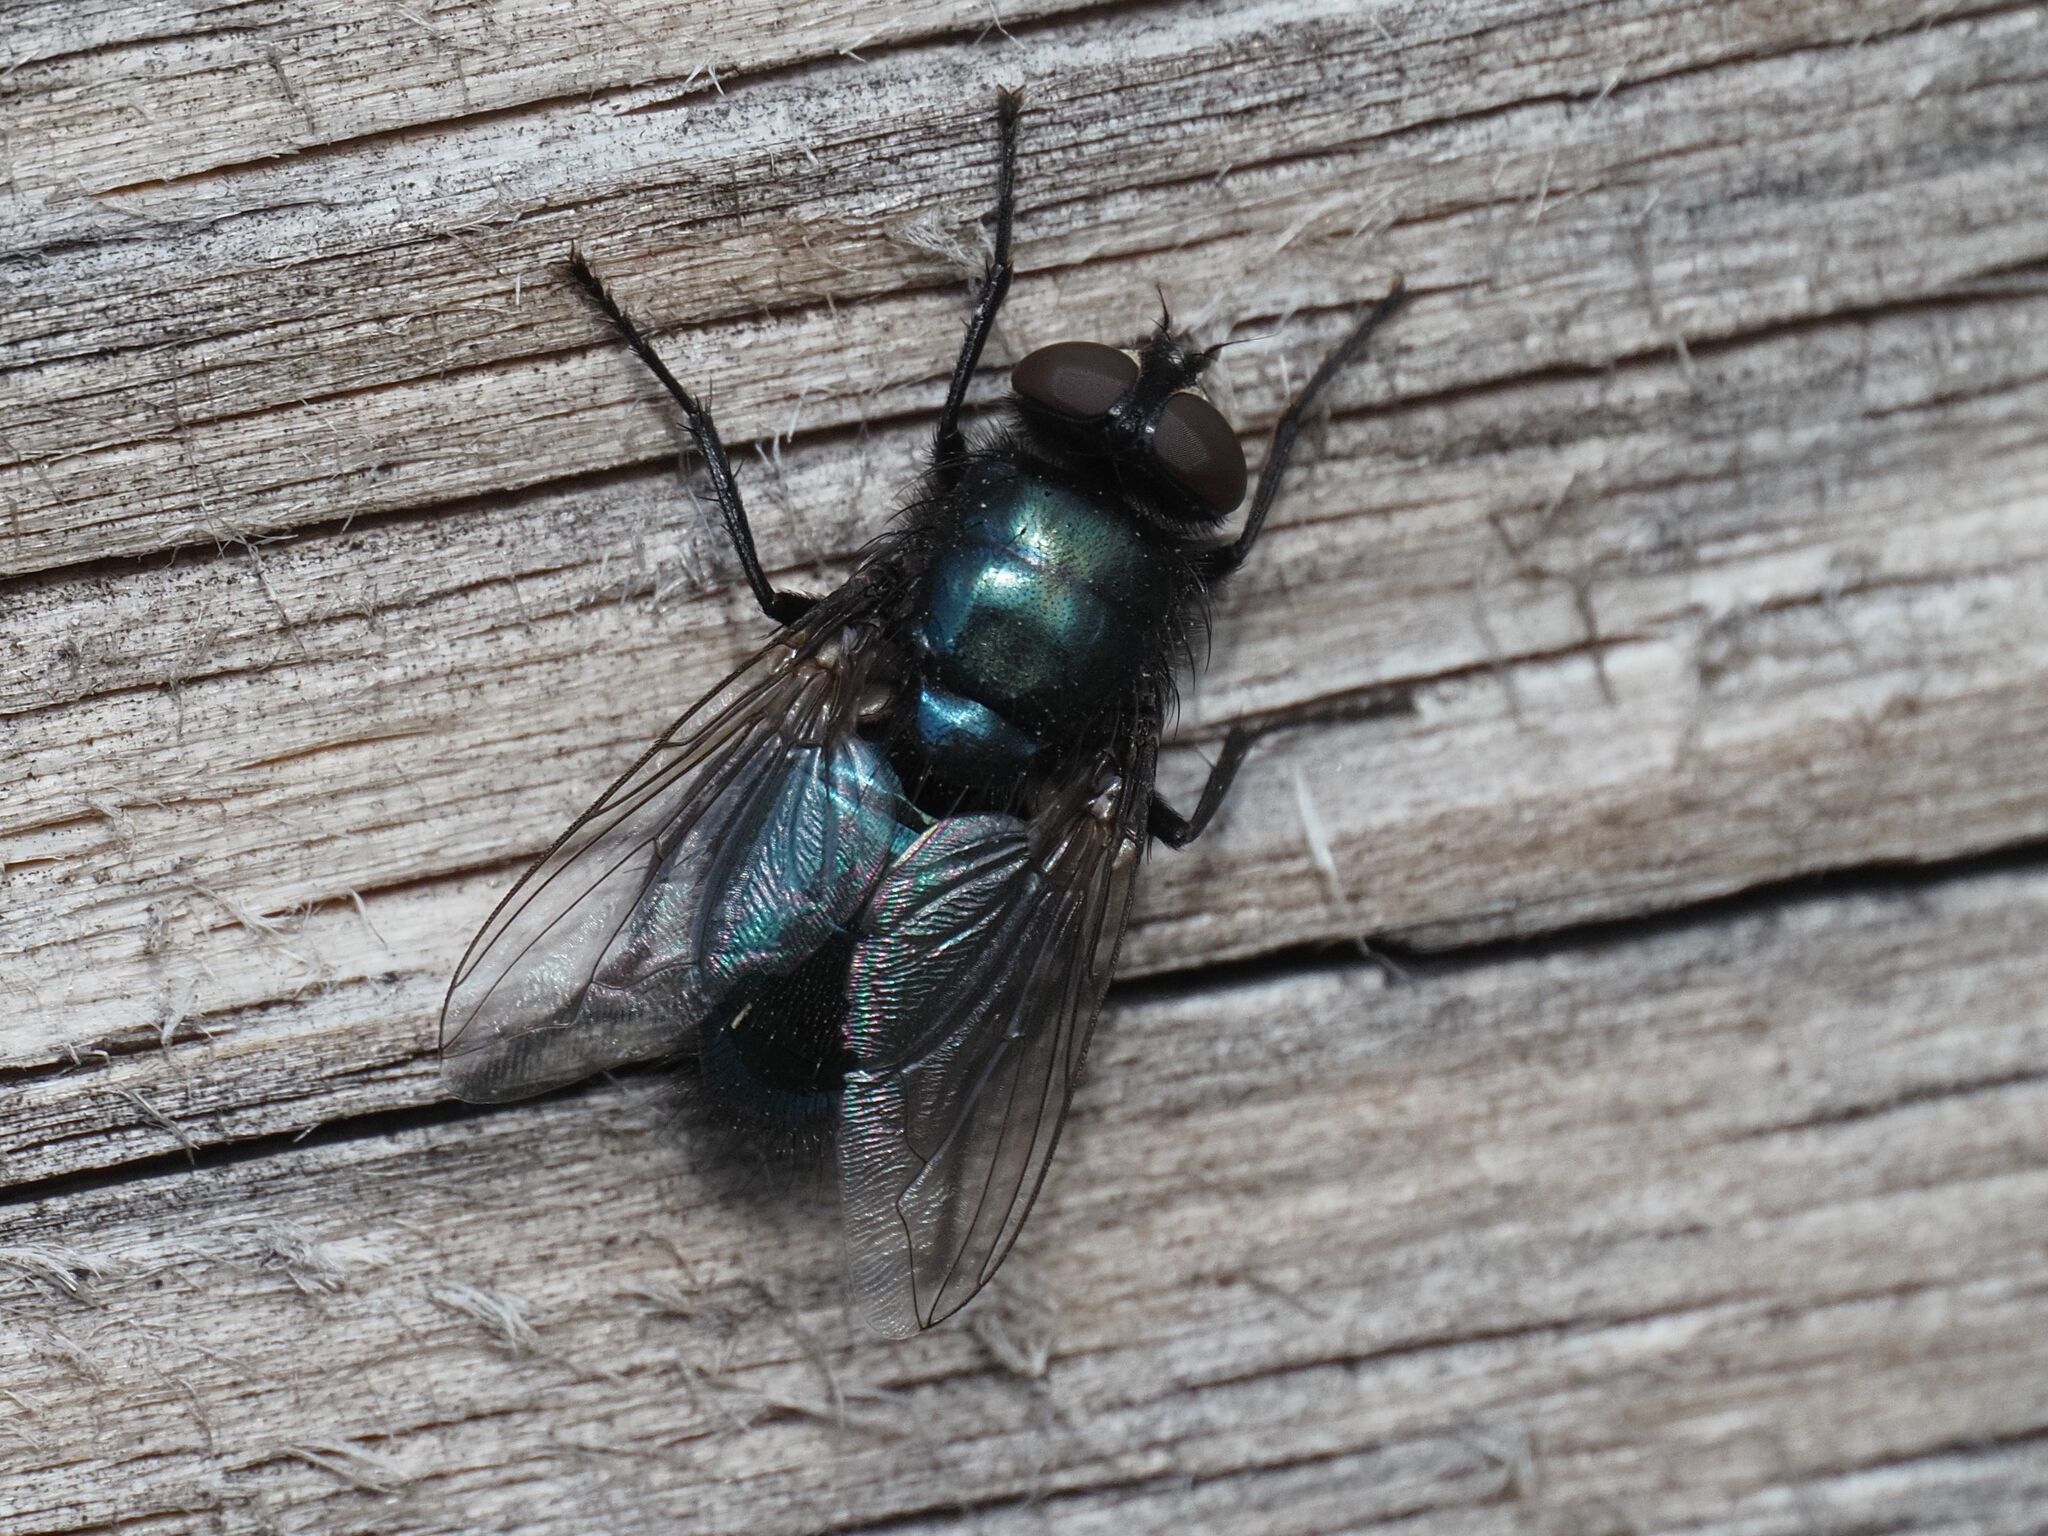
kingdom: Animalia
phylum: Arthropoda
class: Insecta
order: Diptera
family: Calliphoridae
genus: Protophormia
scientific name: Protophormia terraenovae
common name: Blackbottle
